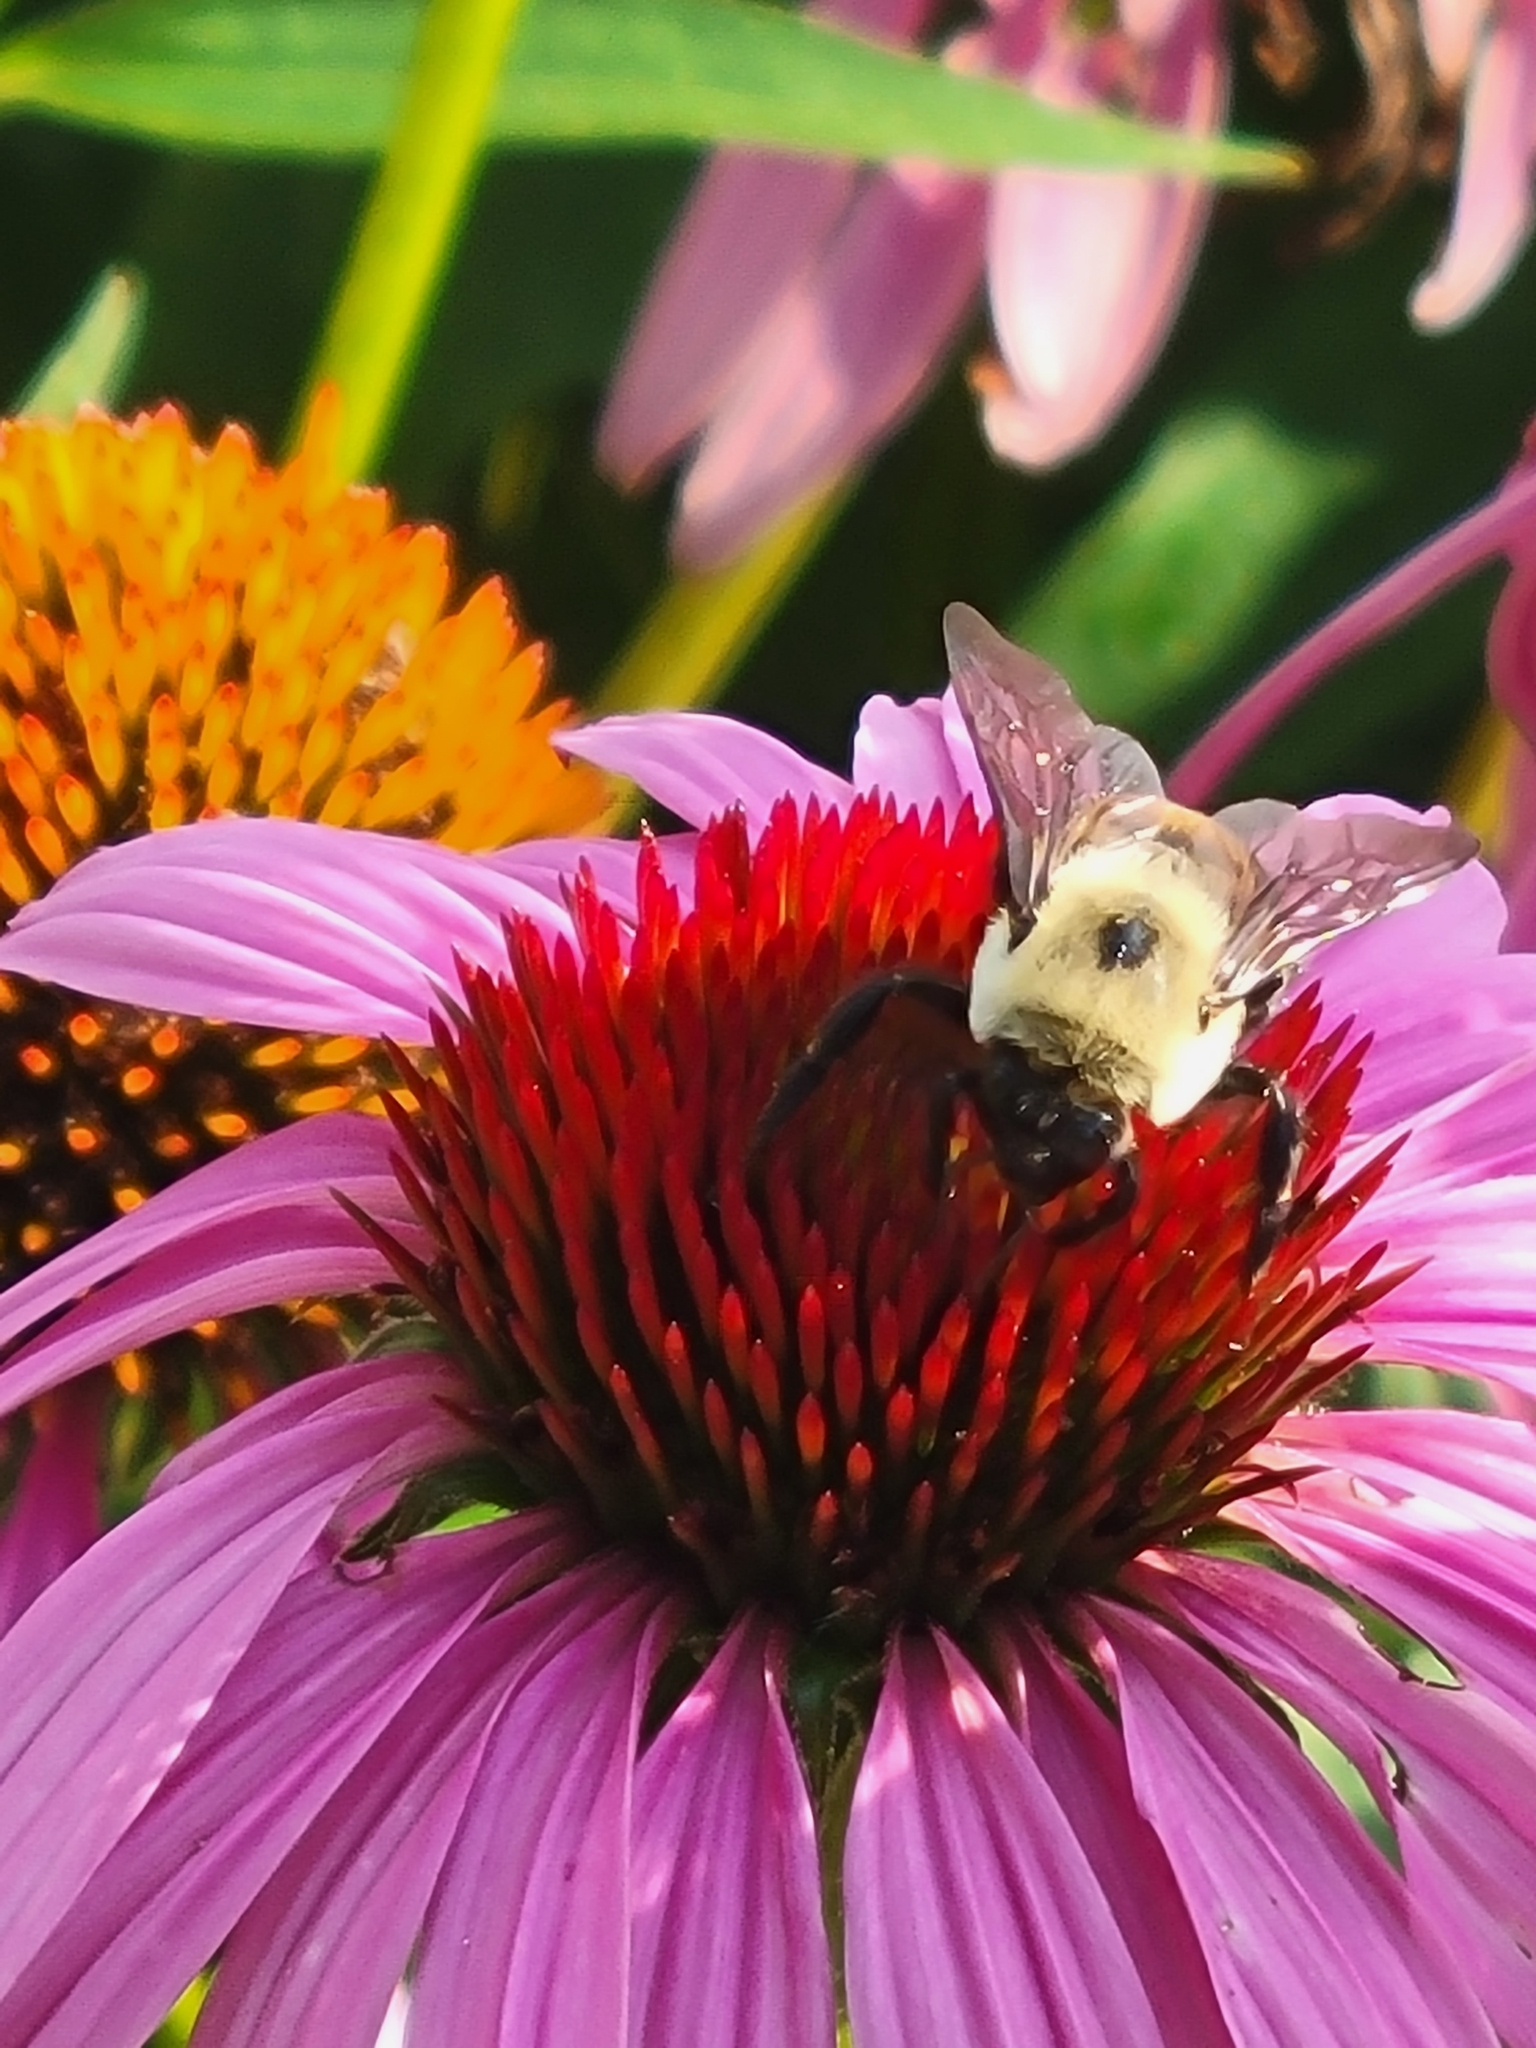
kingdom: Animalia
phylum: Arthropoda
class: Insecta
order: Hymenoptera
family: Apidae
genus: Bombus
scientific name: Bombus griseocollis
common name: Brown-belted bumble bee
